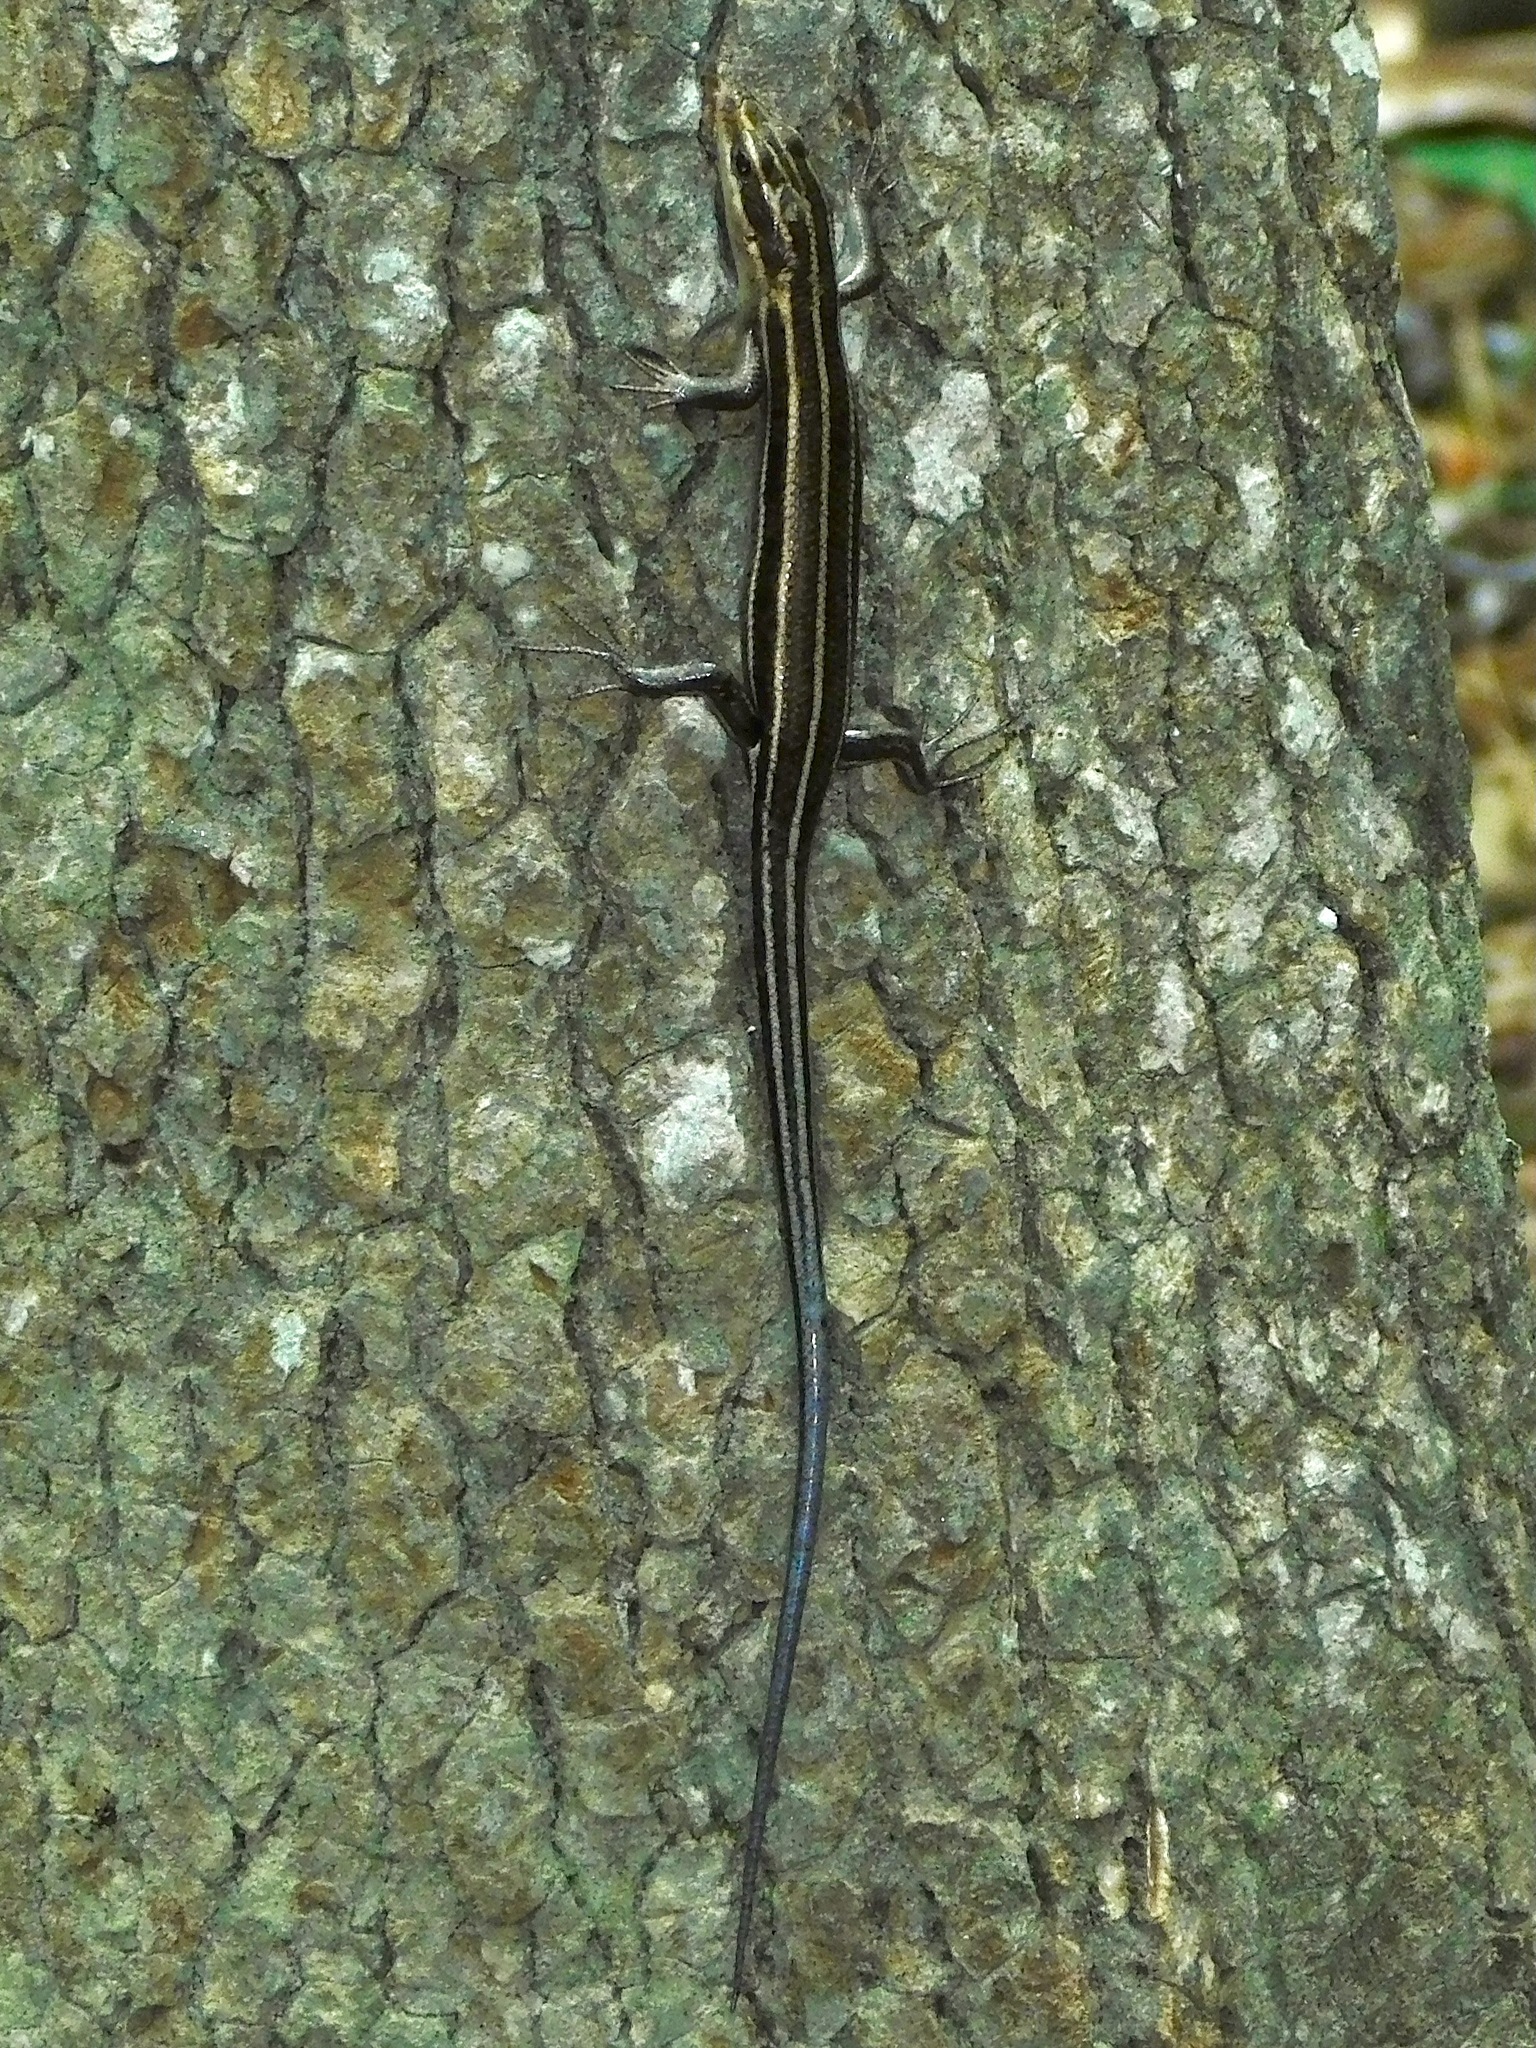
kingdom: Animalia
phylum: Chordata
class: Squamata
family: Scincidae
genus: Plestiodon
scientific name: Plestiodon fasciatus
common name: Five-lined skink
